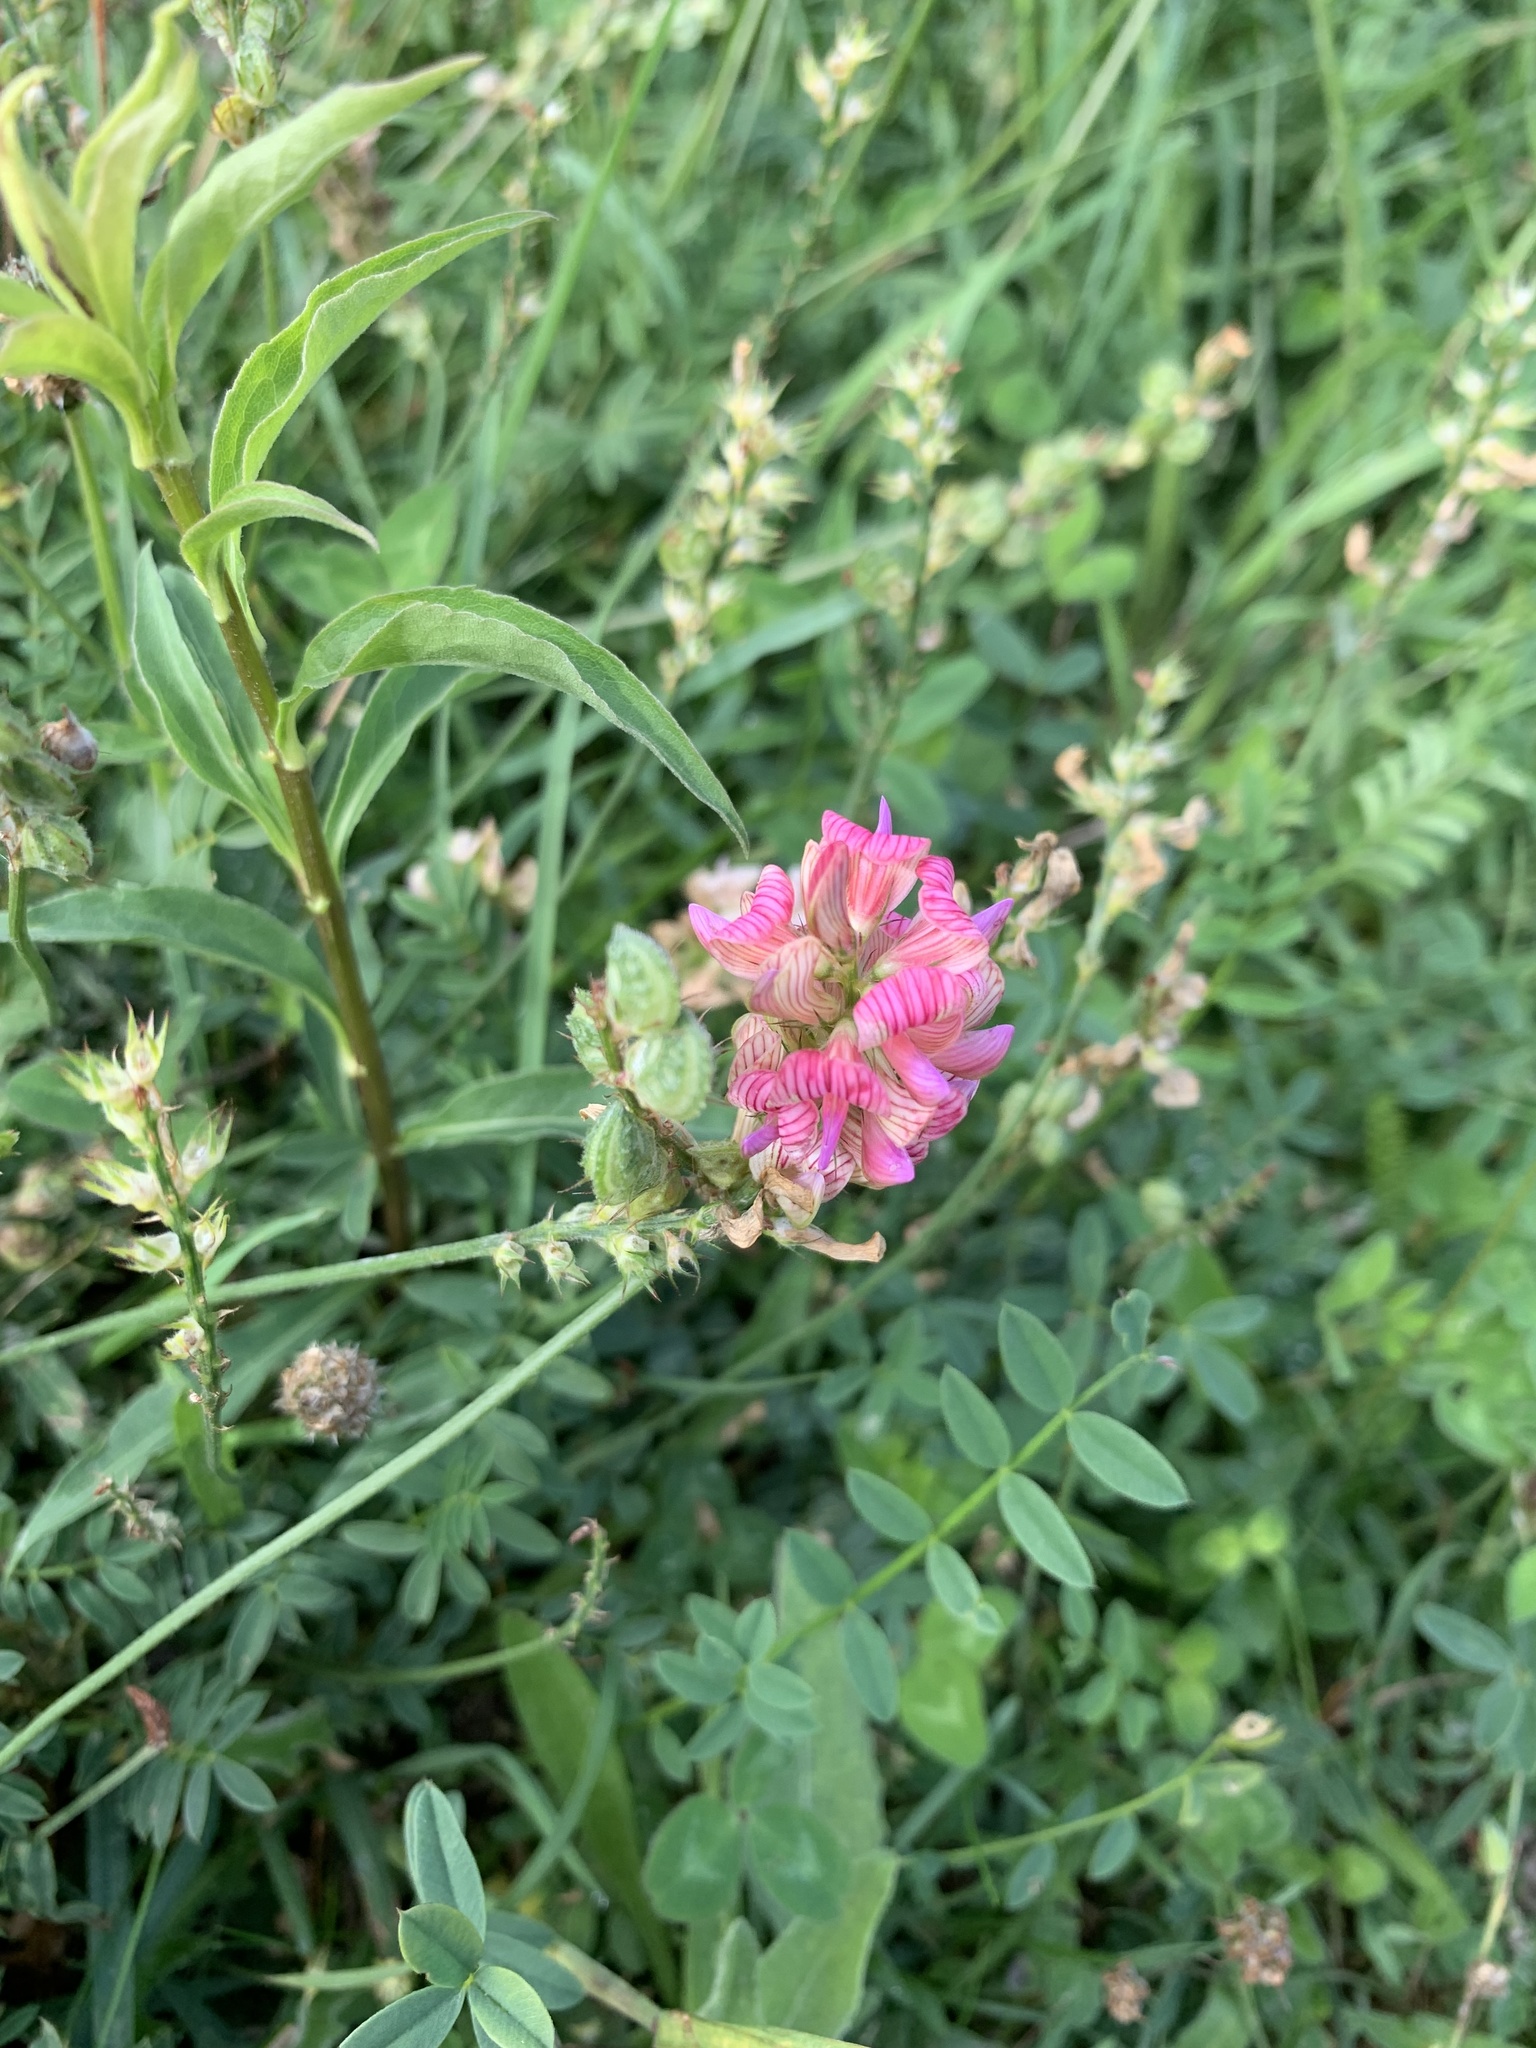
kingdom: Plantae
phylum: Tracheophyta
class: Magnoliopsida
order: Fabales
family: Fabaceae
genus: Onobrychis
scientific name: Onobrychis viciifolia
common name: Sainfoin
